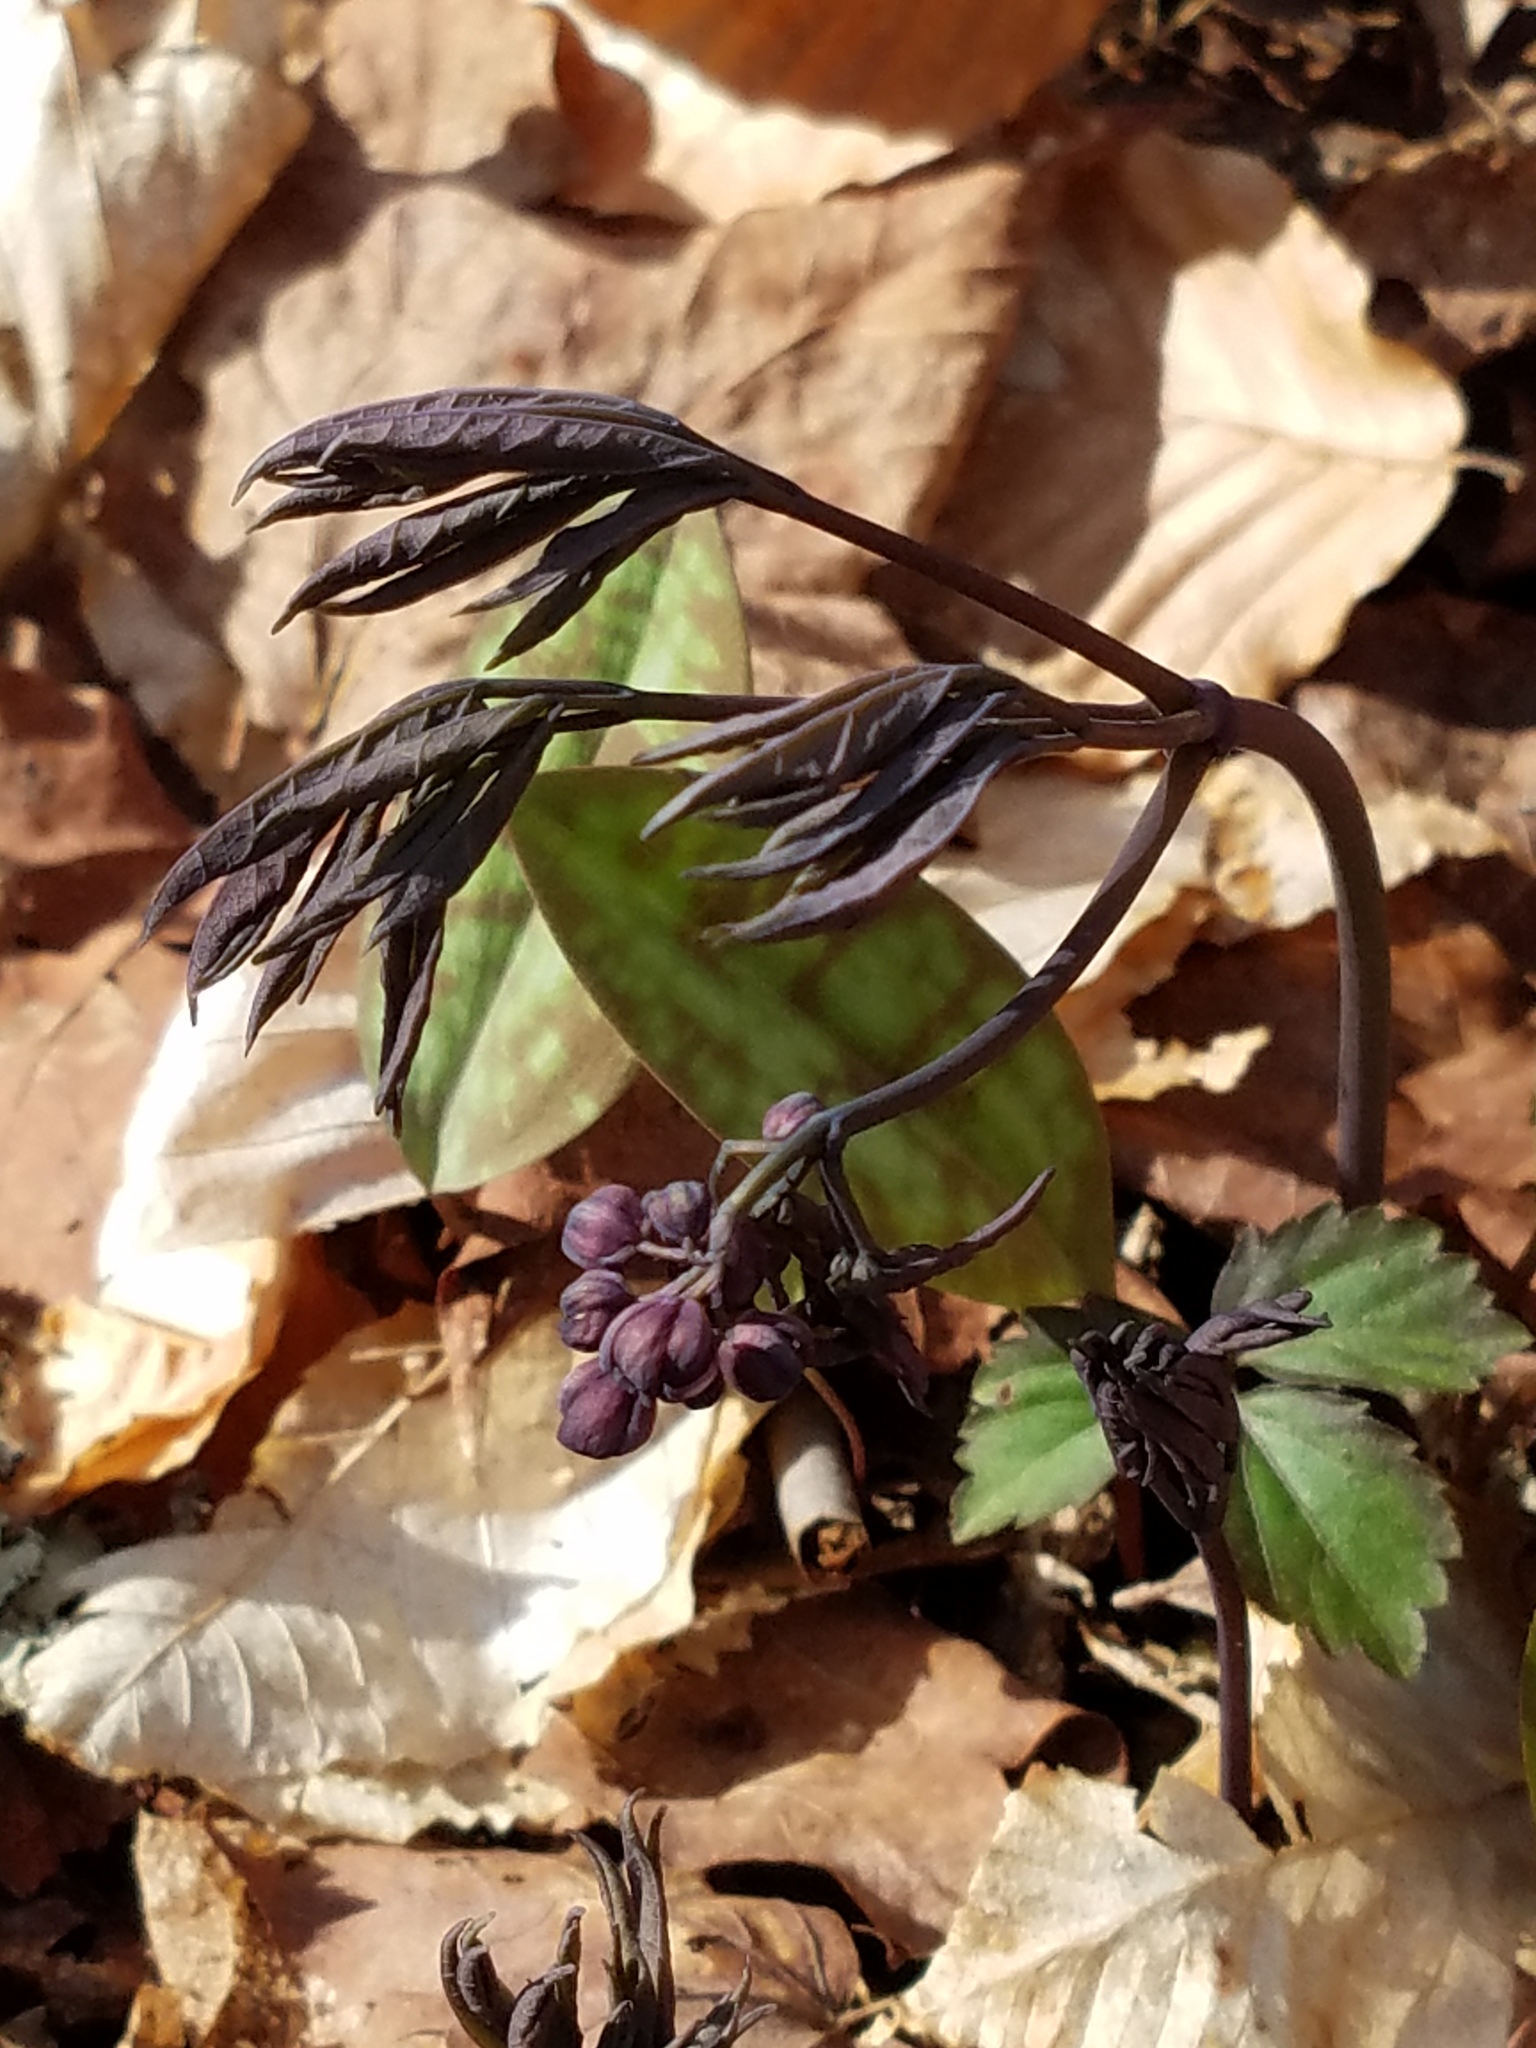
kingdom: Plantae
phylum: Tracheophyta
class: Magnoliopsida
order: Ranunculales
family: Berberidaceae
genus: Caulophyllum
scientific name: Caulophyllum giganteum
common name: Blue cohosh
